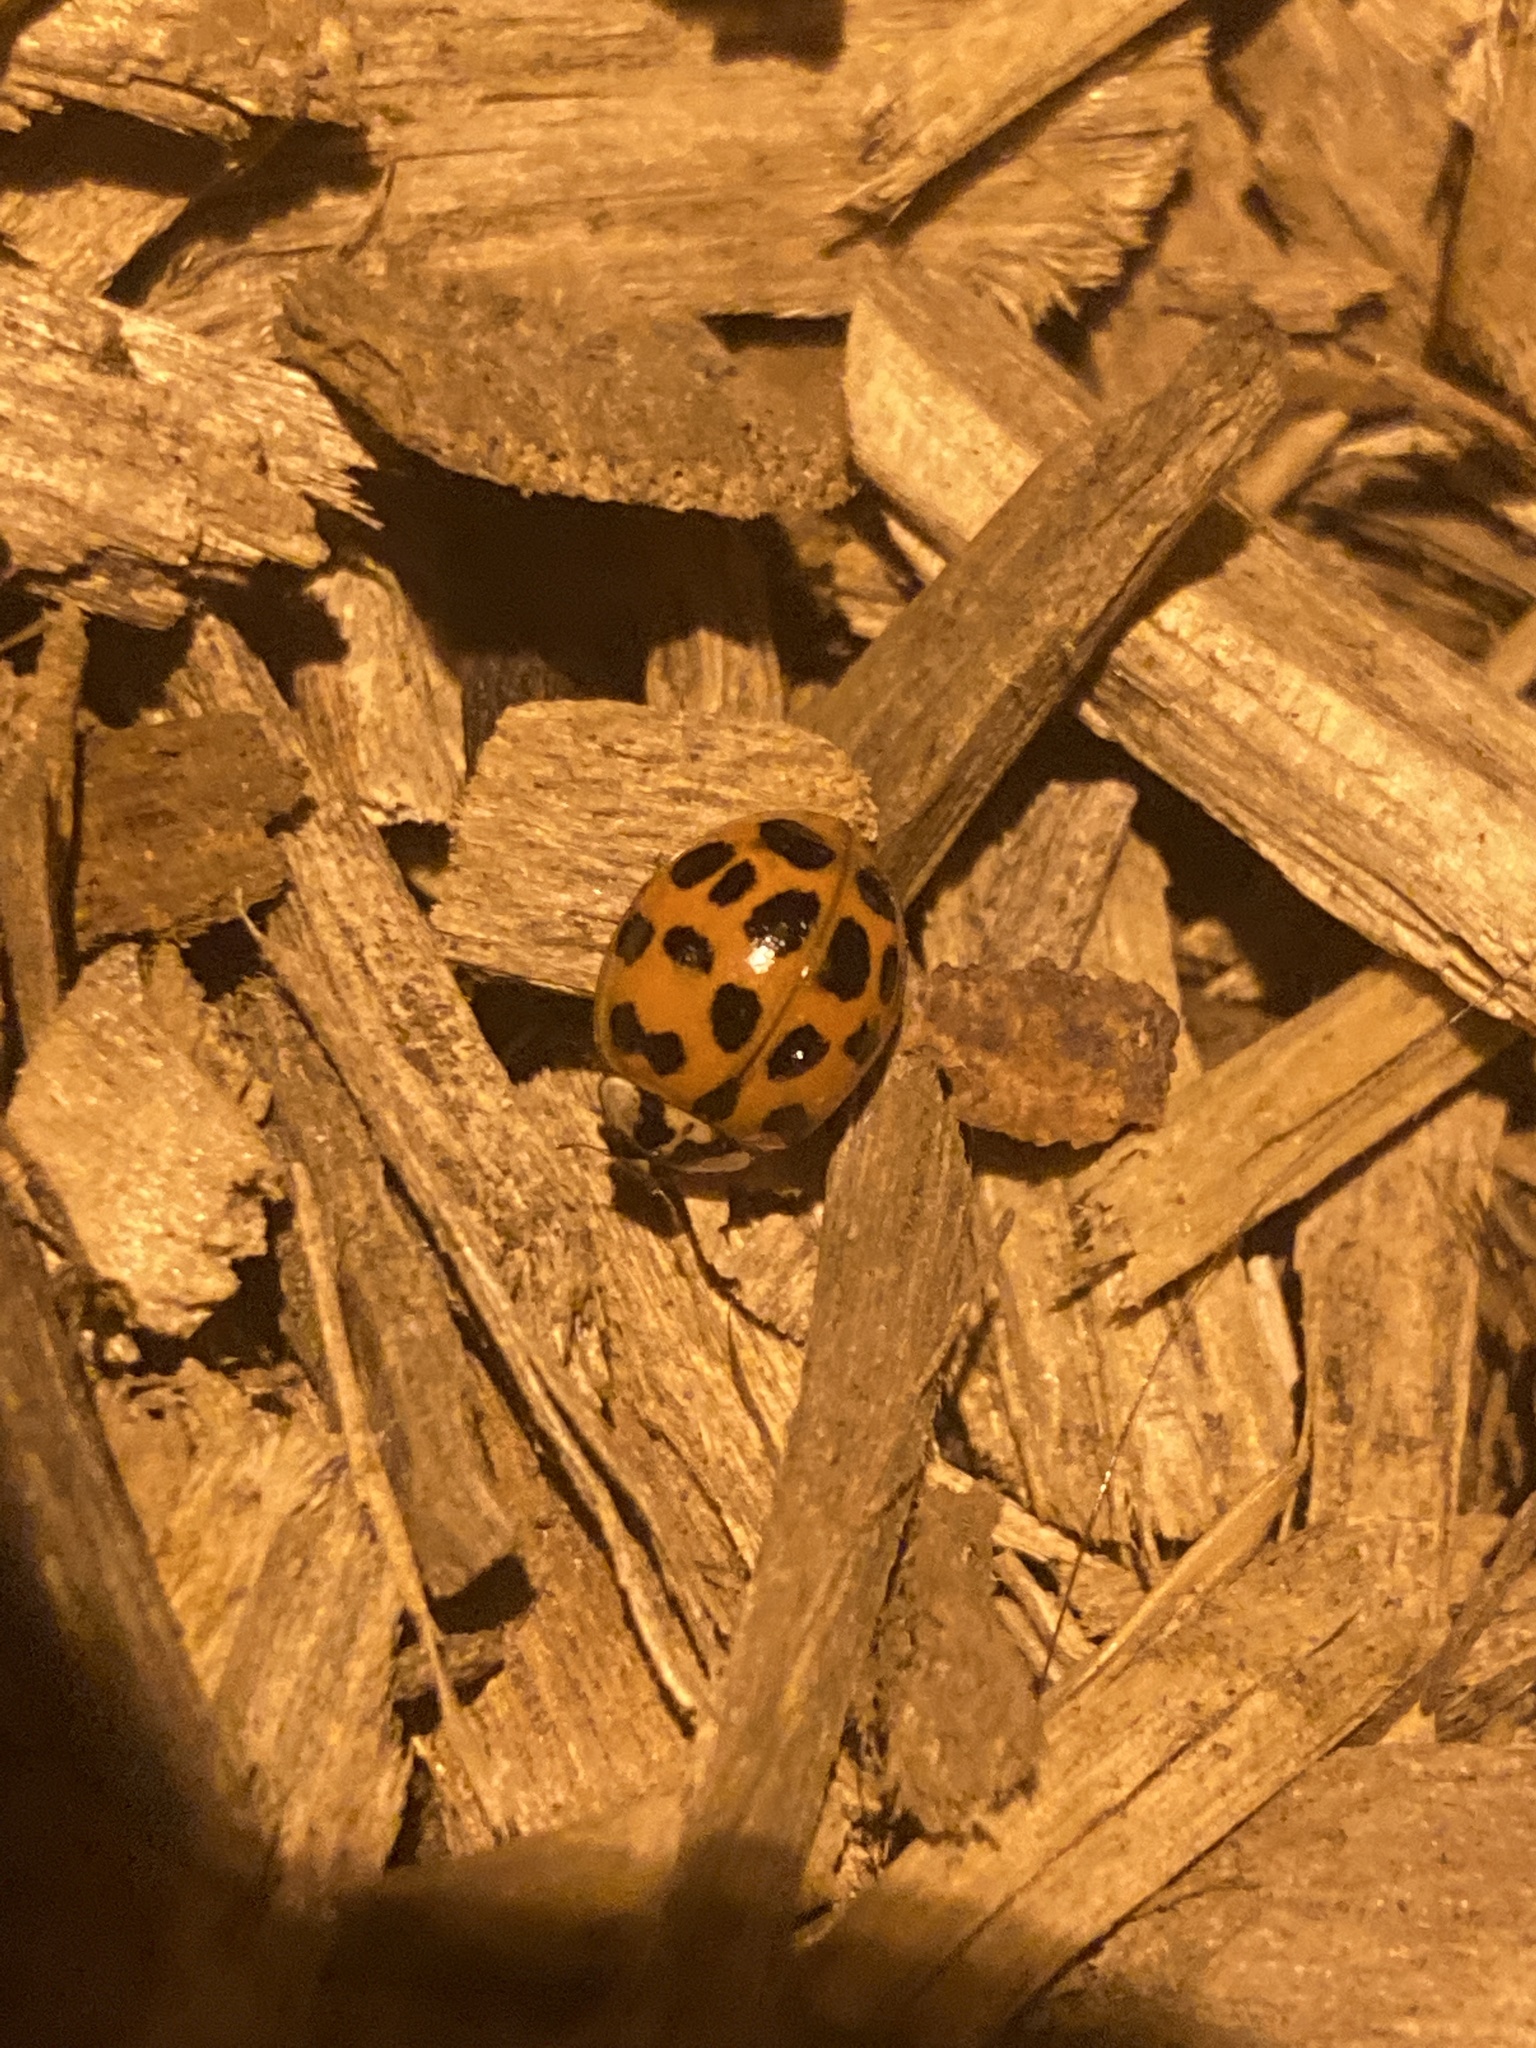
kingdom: Animalia
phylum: Arthropoda
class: Insecta
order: Coleoptera
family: Coccinellidae
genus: Harmonia
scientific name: Harmonia axyridis
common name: Harlequin ladybird
